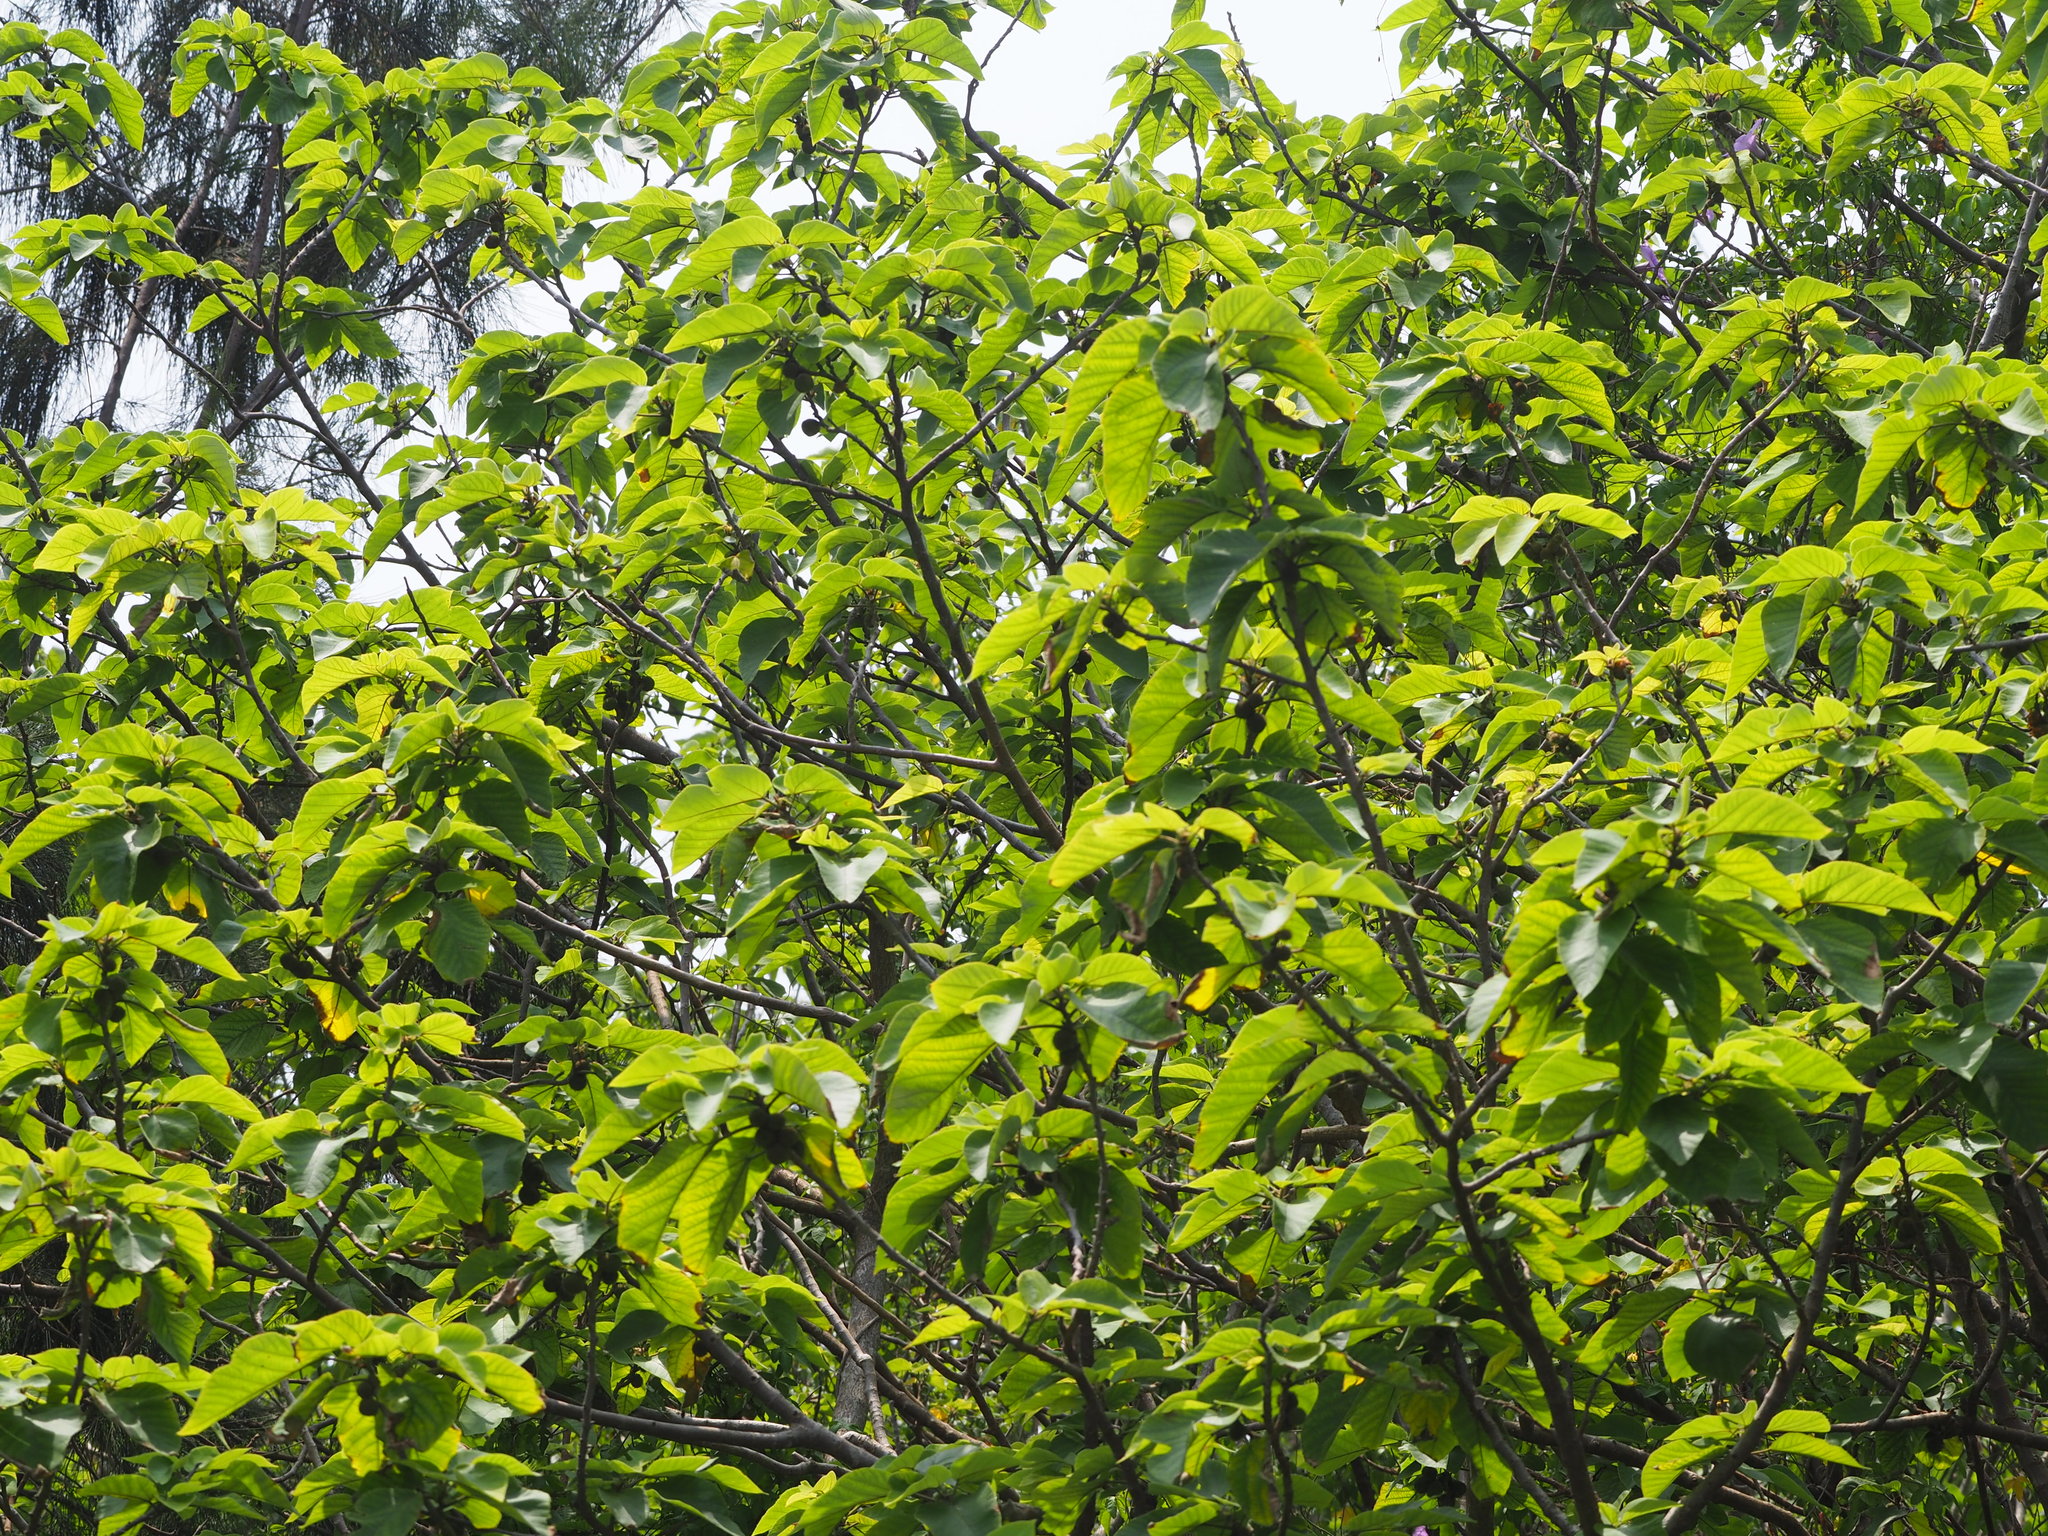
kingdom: Plantae
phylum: Tracheophyta
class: Magnoliopsida
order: Rosales
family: Moraceae
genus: Broussonetia
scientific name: Broussonetia papyrifera
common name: Paper mulberry
